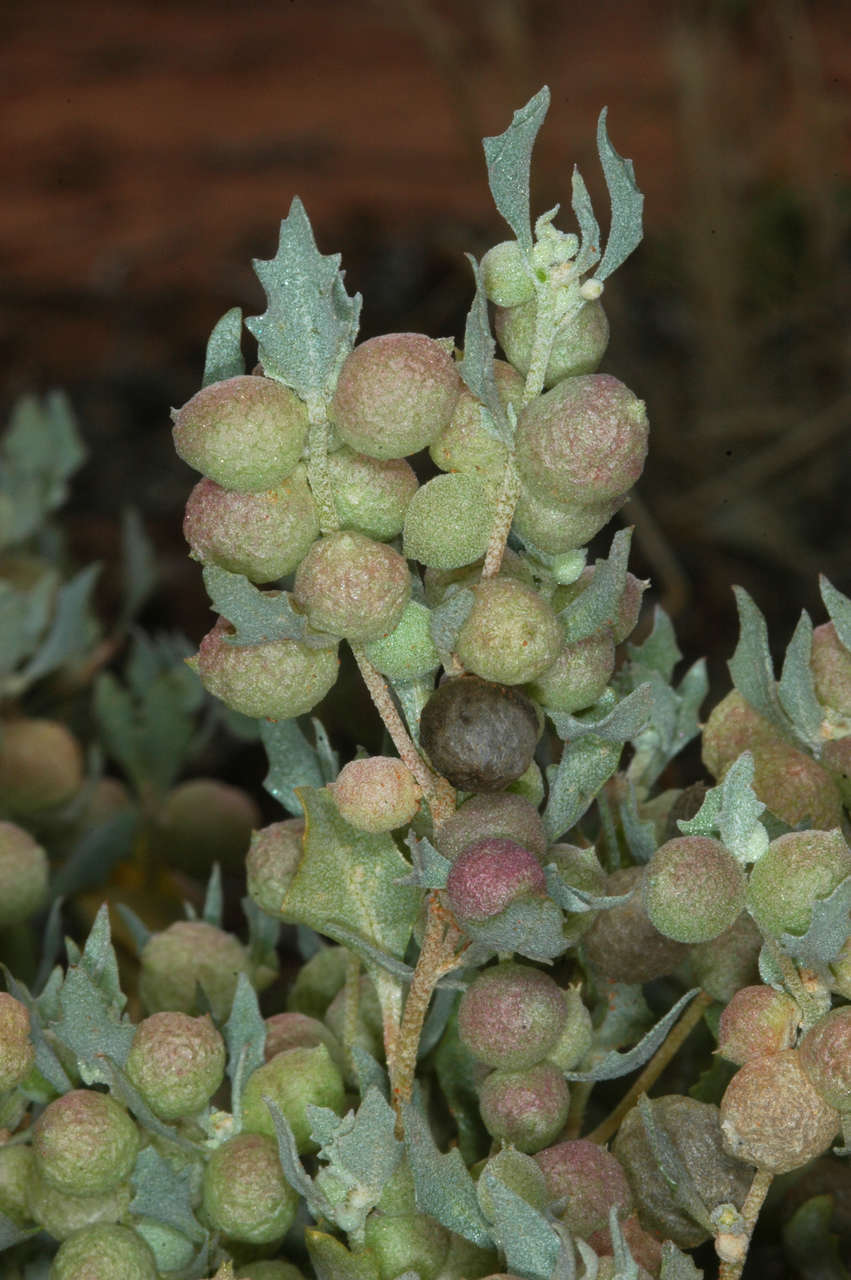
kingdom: Plantae
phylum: Tracheophyta
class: Magnoliopsida
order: Caryophyllales
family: Amaranthaceae
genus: Atriplex
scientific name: Atriplex holocarpa
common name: Pop saltbush
